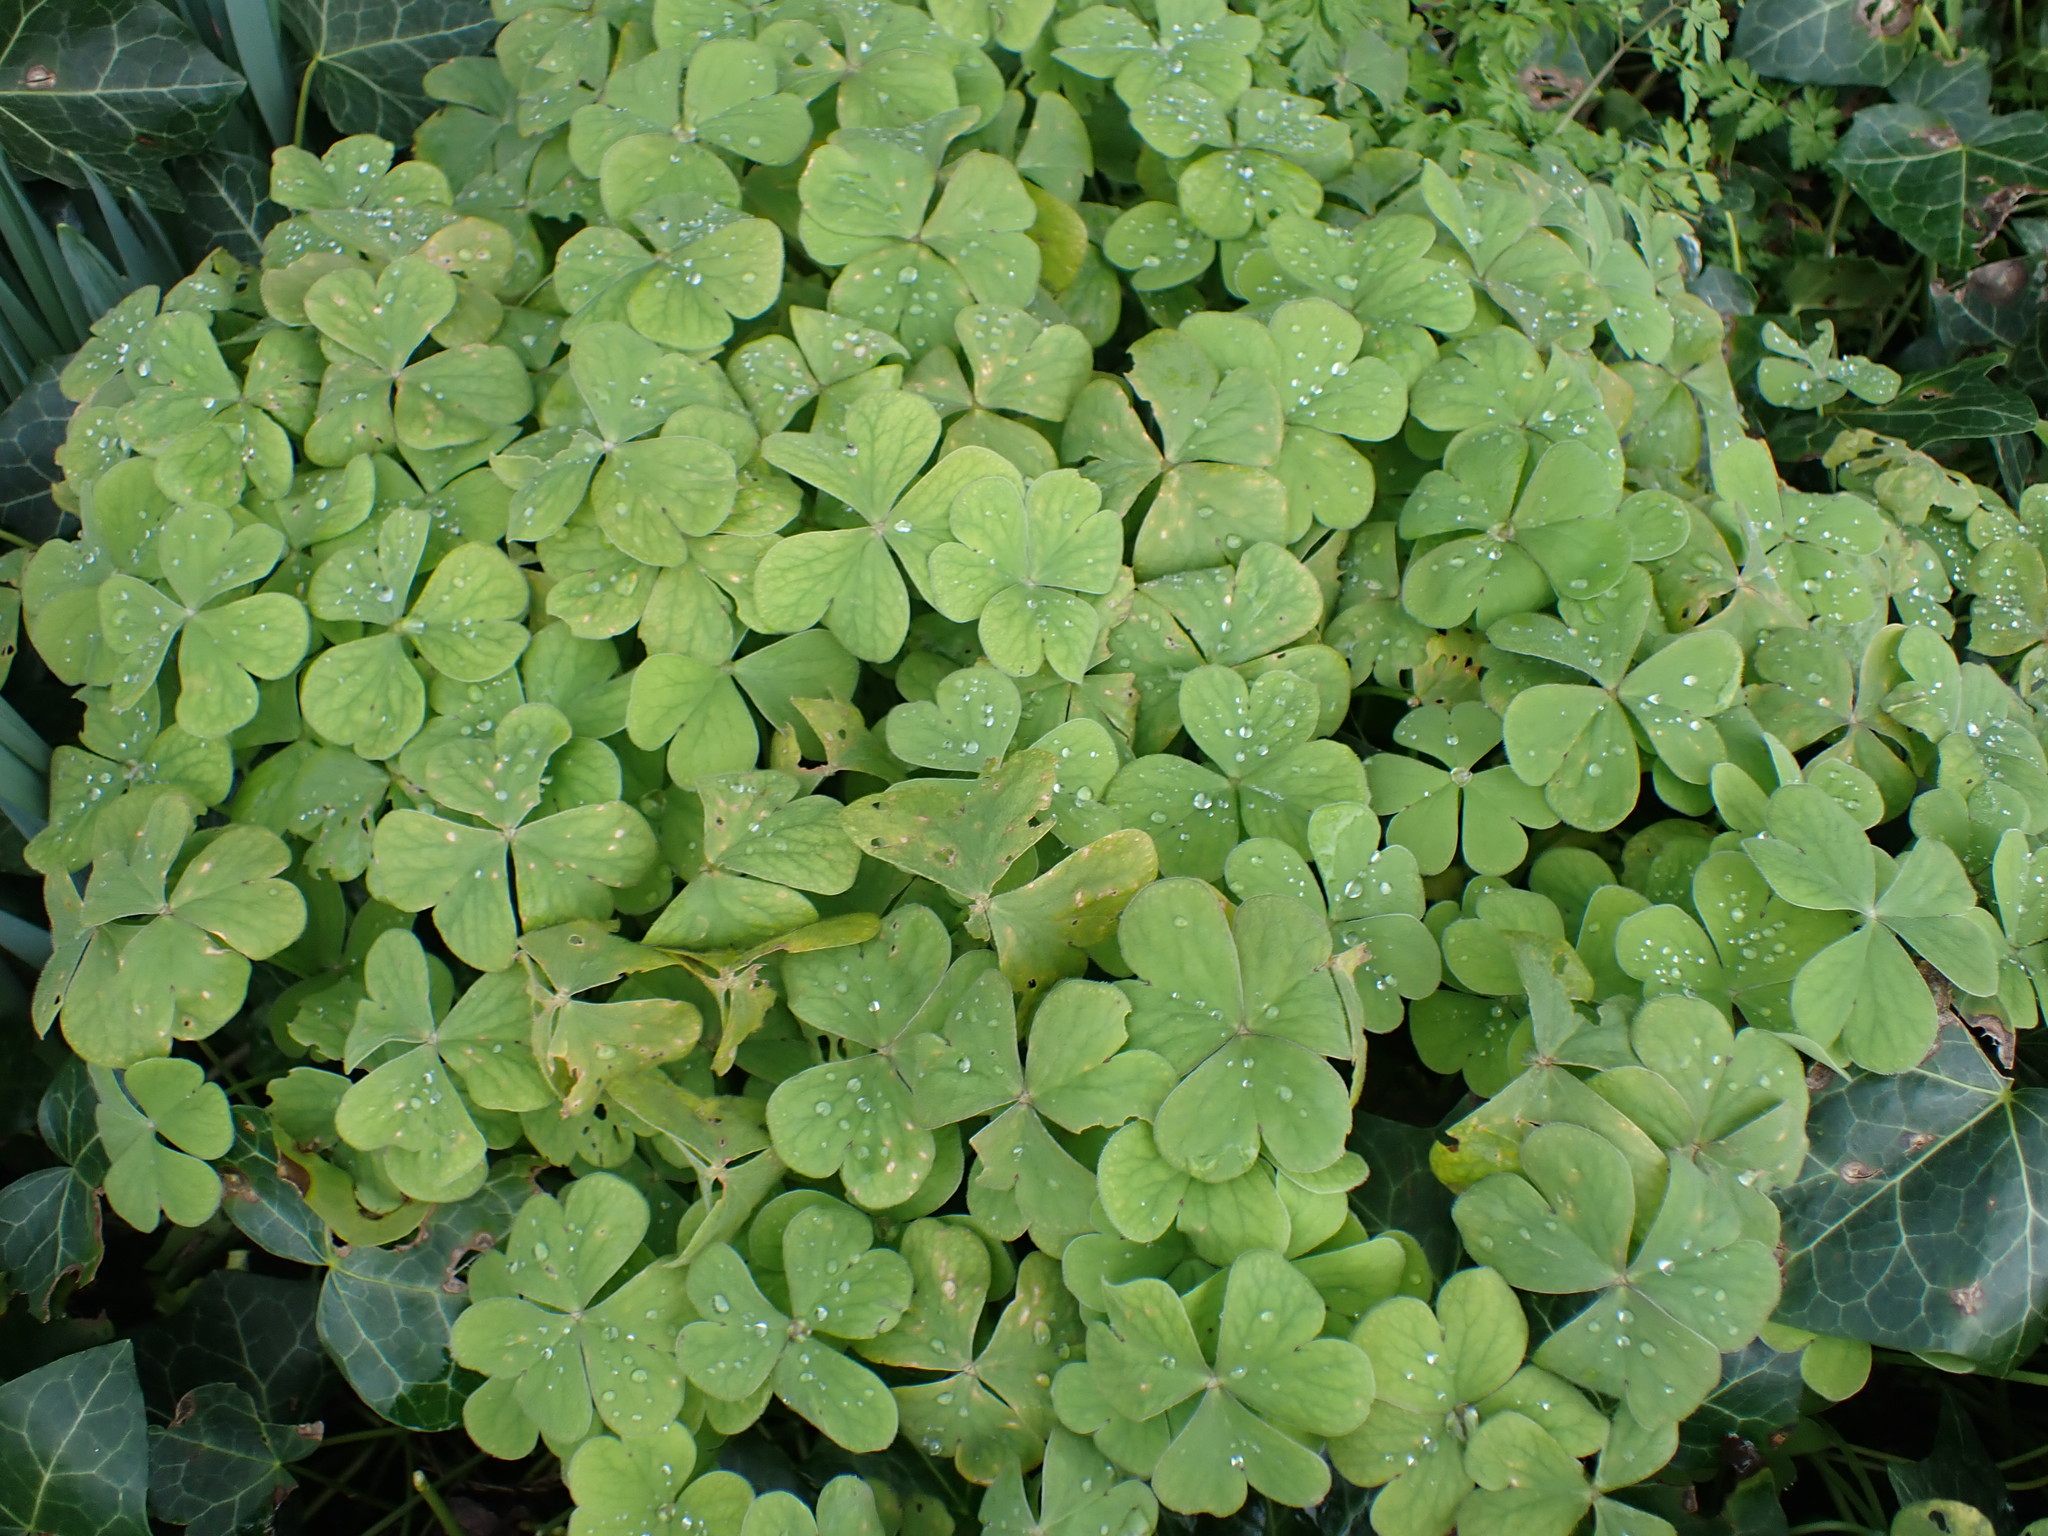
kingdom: Plantae
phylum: Tracheophyta
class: Magnoliopsida
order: Oxalidales
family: Oxalidaceae
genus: Oxalis
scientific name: Oxalis articulata
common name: Pink-sorrel
